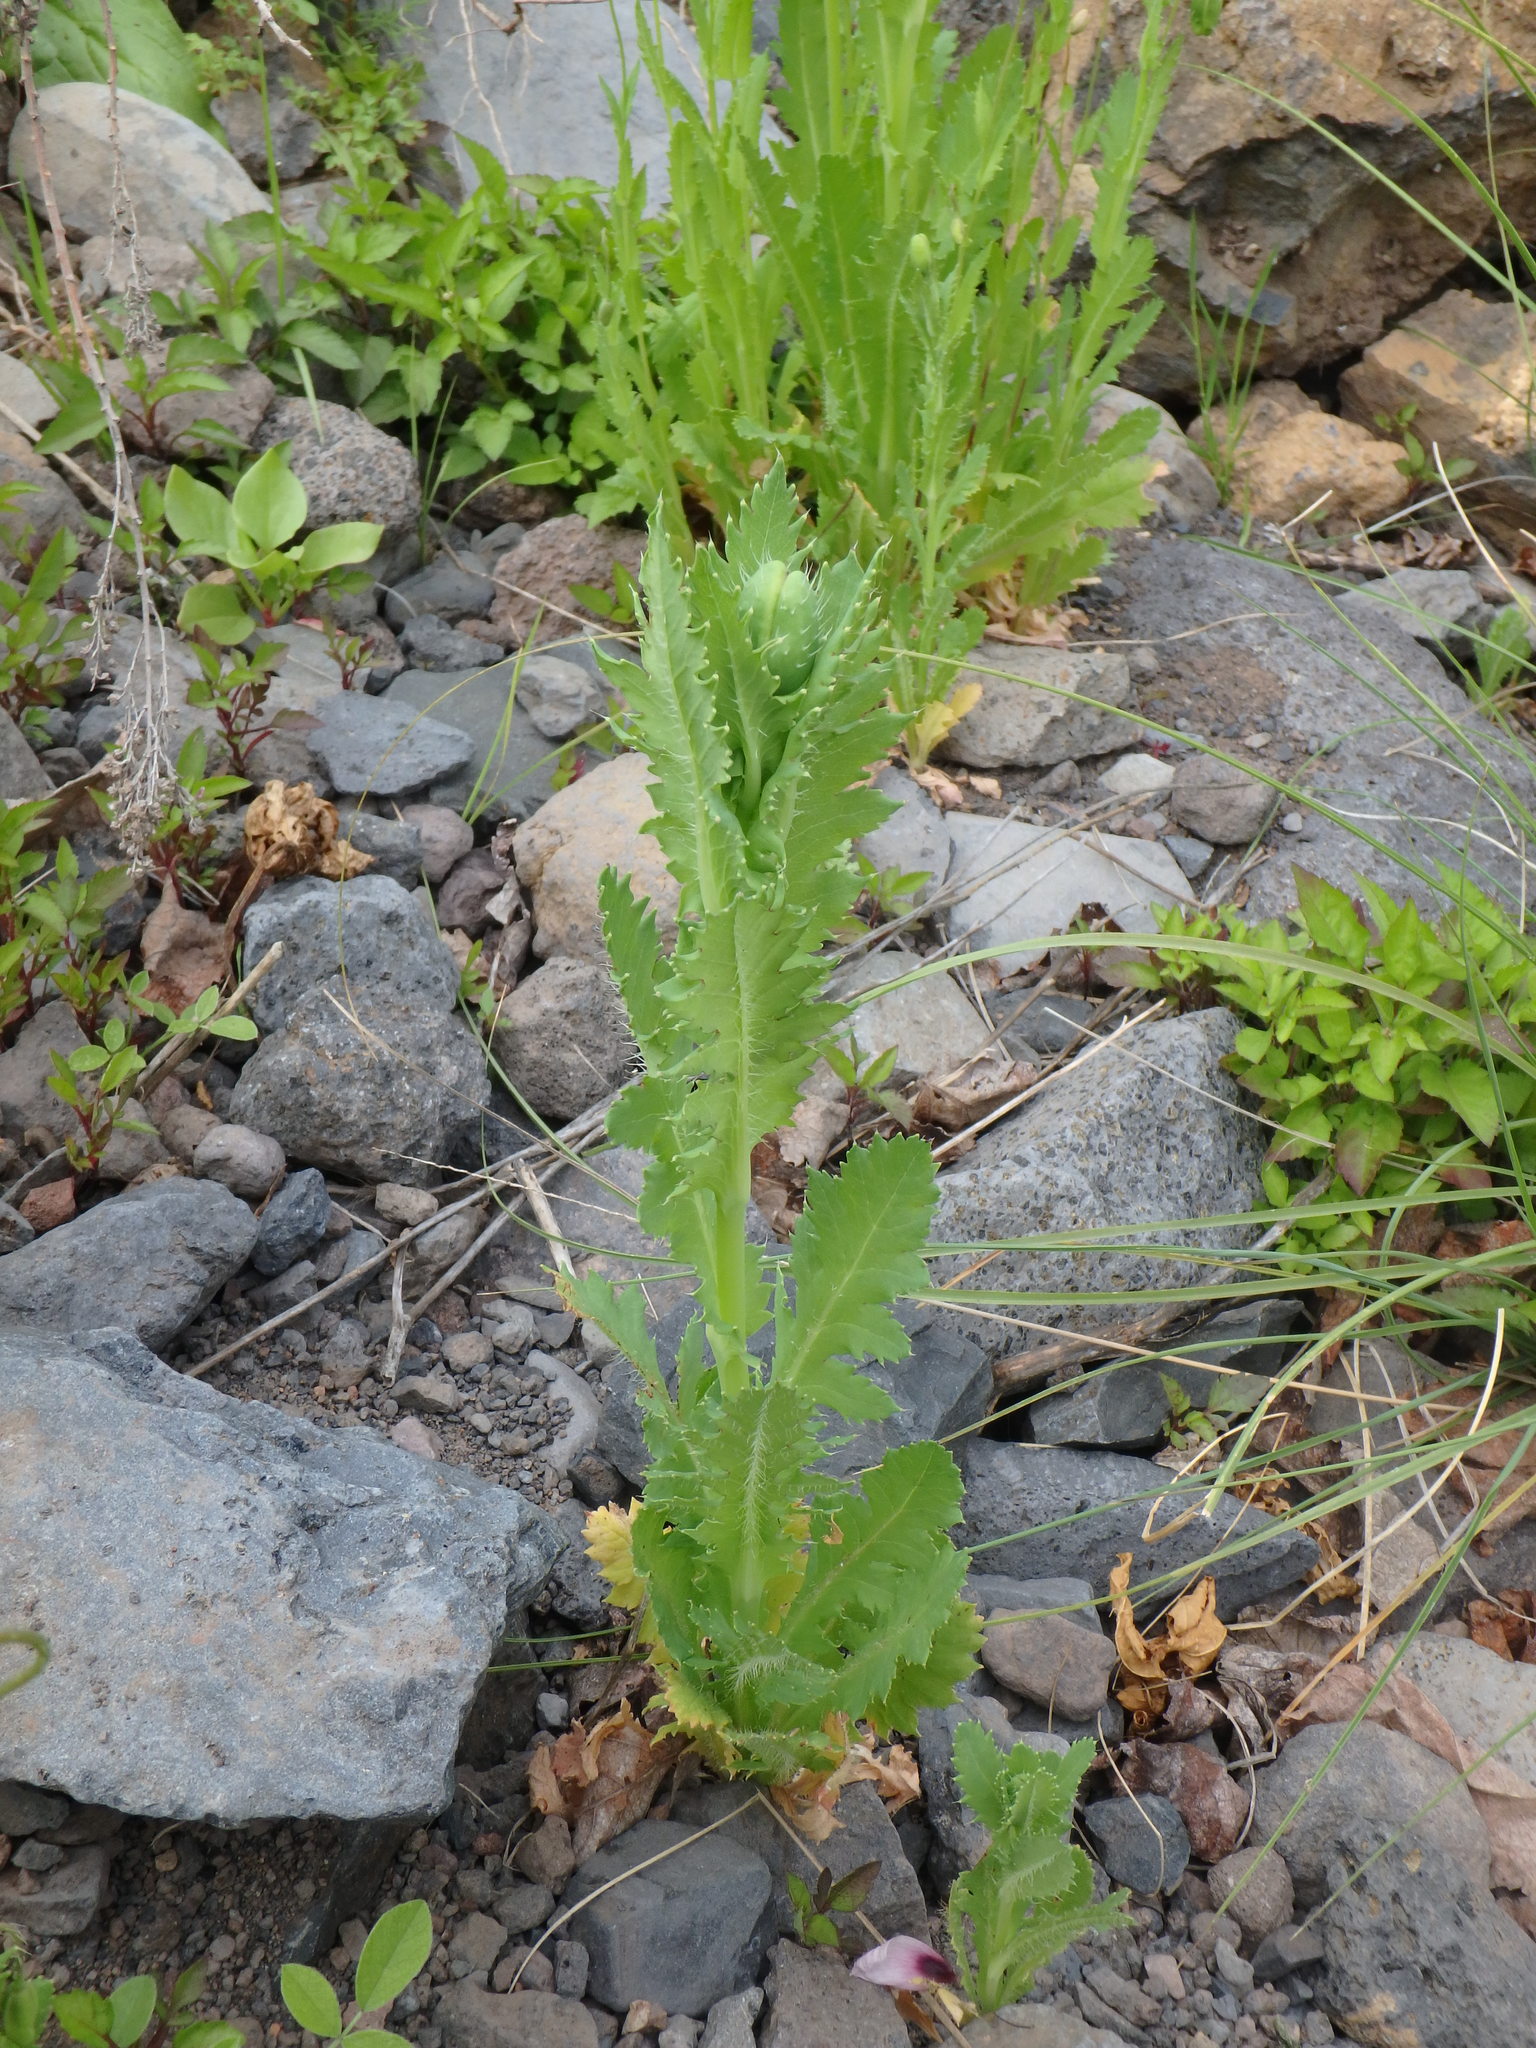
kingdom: Plantae
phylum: Tracheophyta
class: Magnoliopsida
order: Ranunculales
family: Papaveraceae
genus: Papaver
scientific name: Papaver somniferum
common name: Opium poppy
